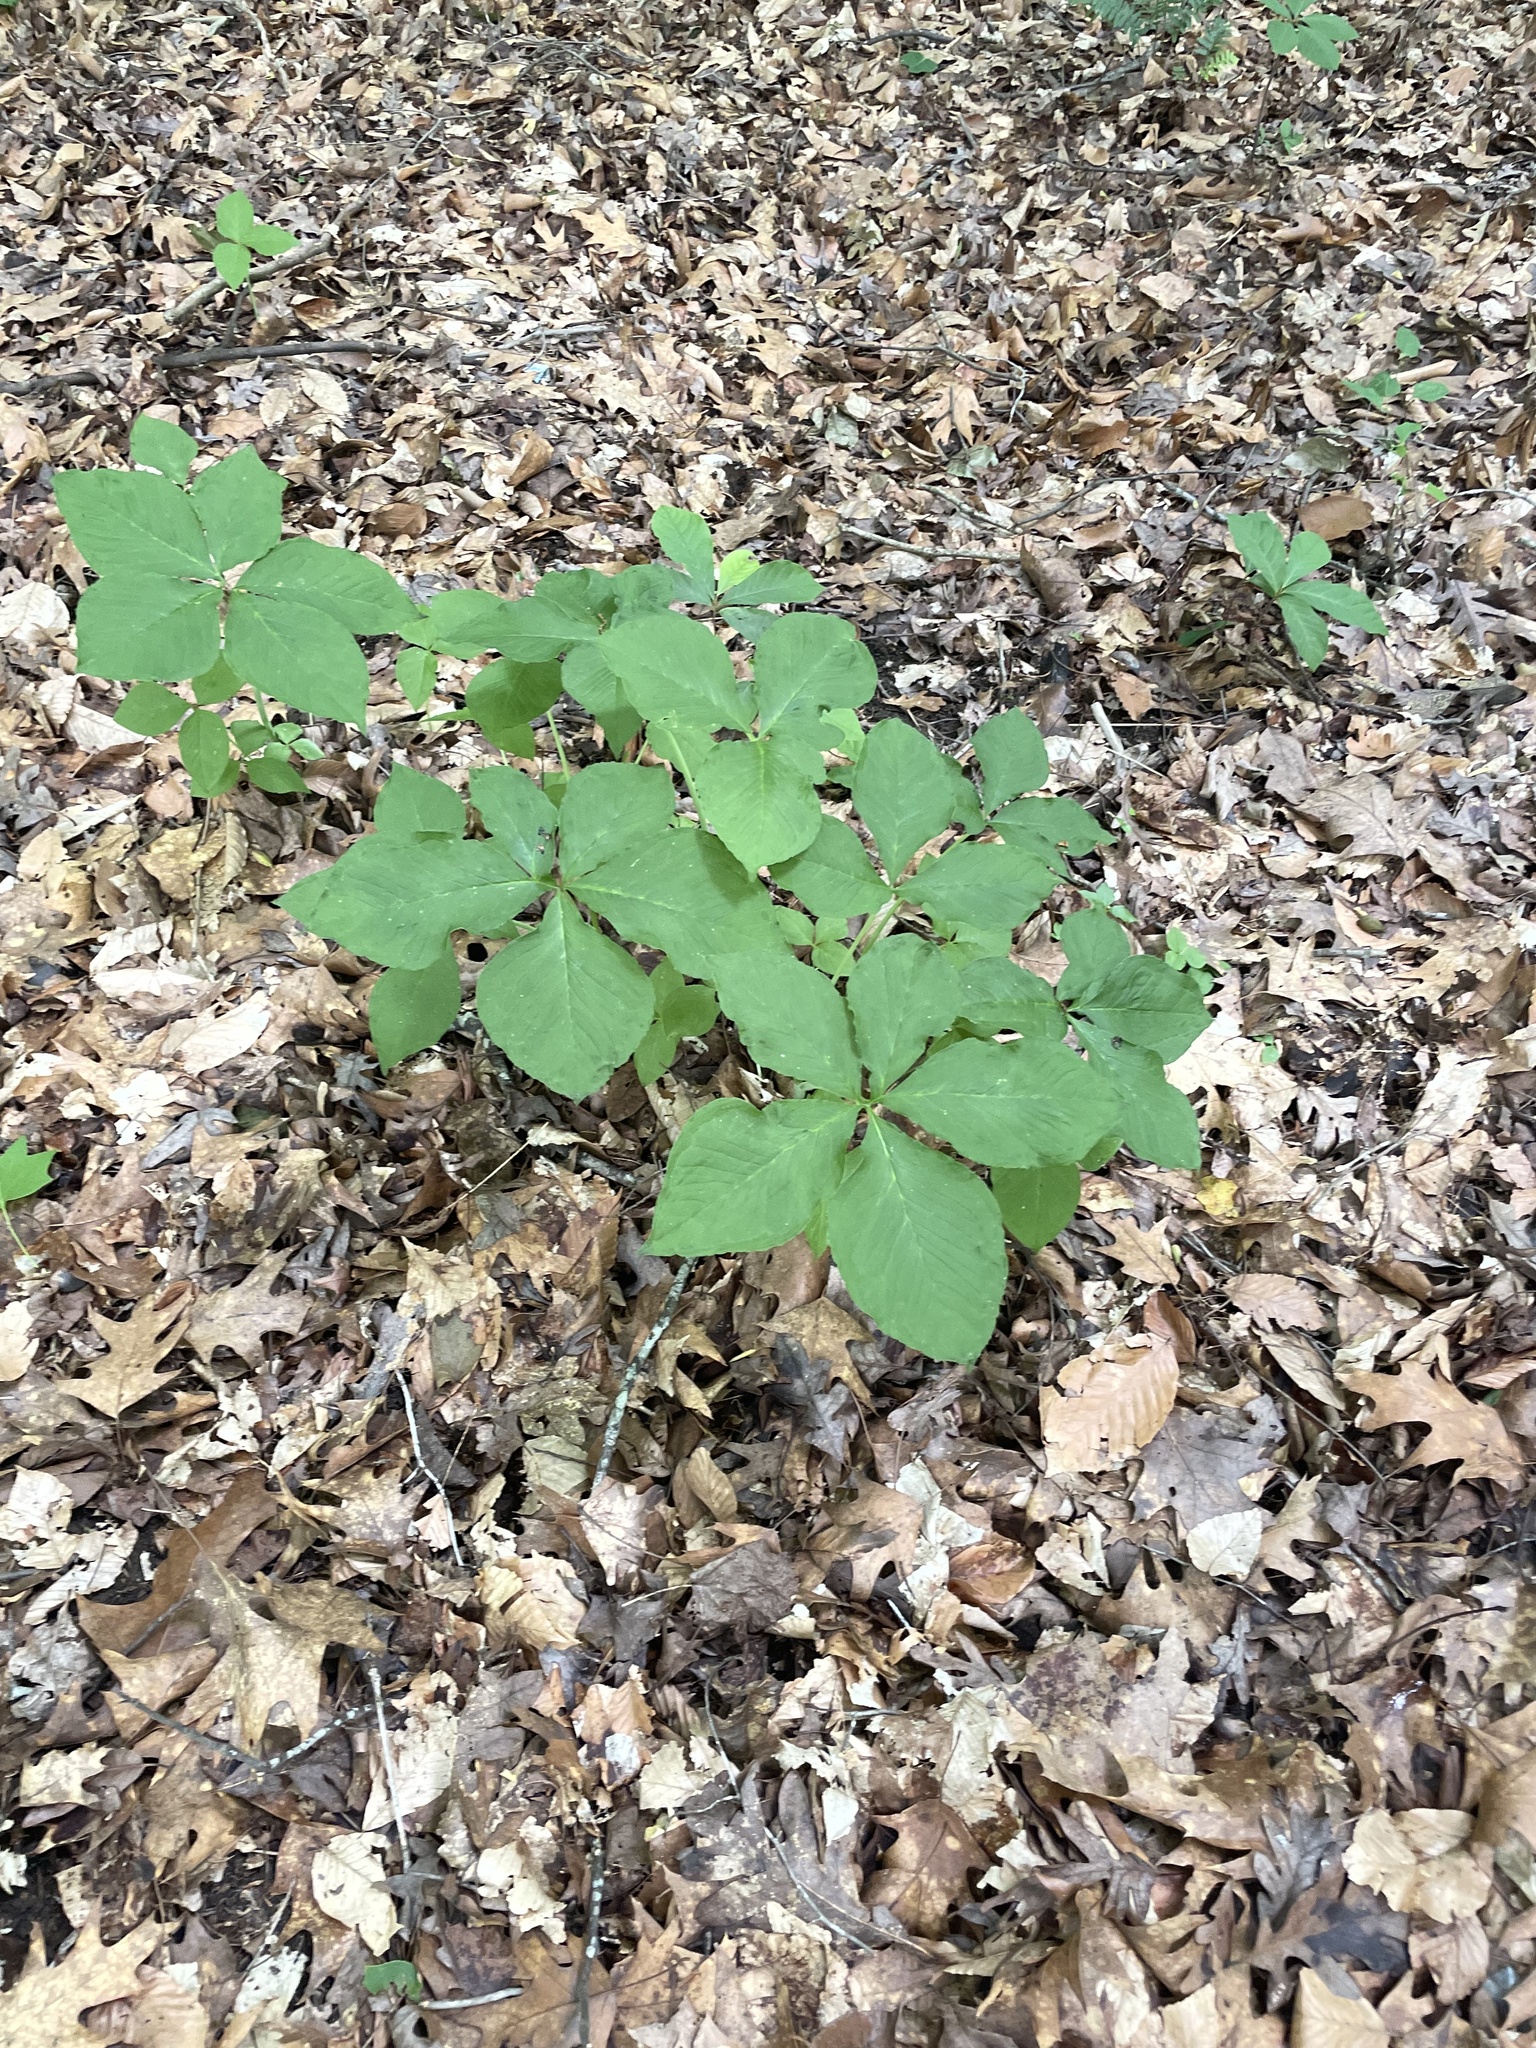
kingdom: Plantae
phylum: Tracheophyta
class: Liliopsida
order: Alismatales
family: Araceae
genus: Arisaema
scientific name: Arisaema quinatum
